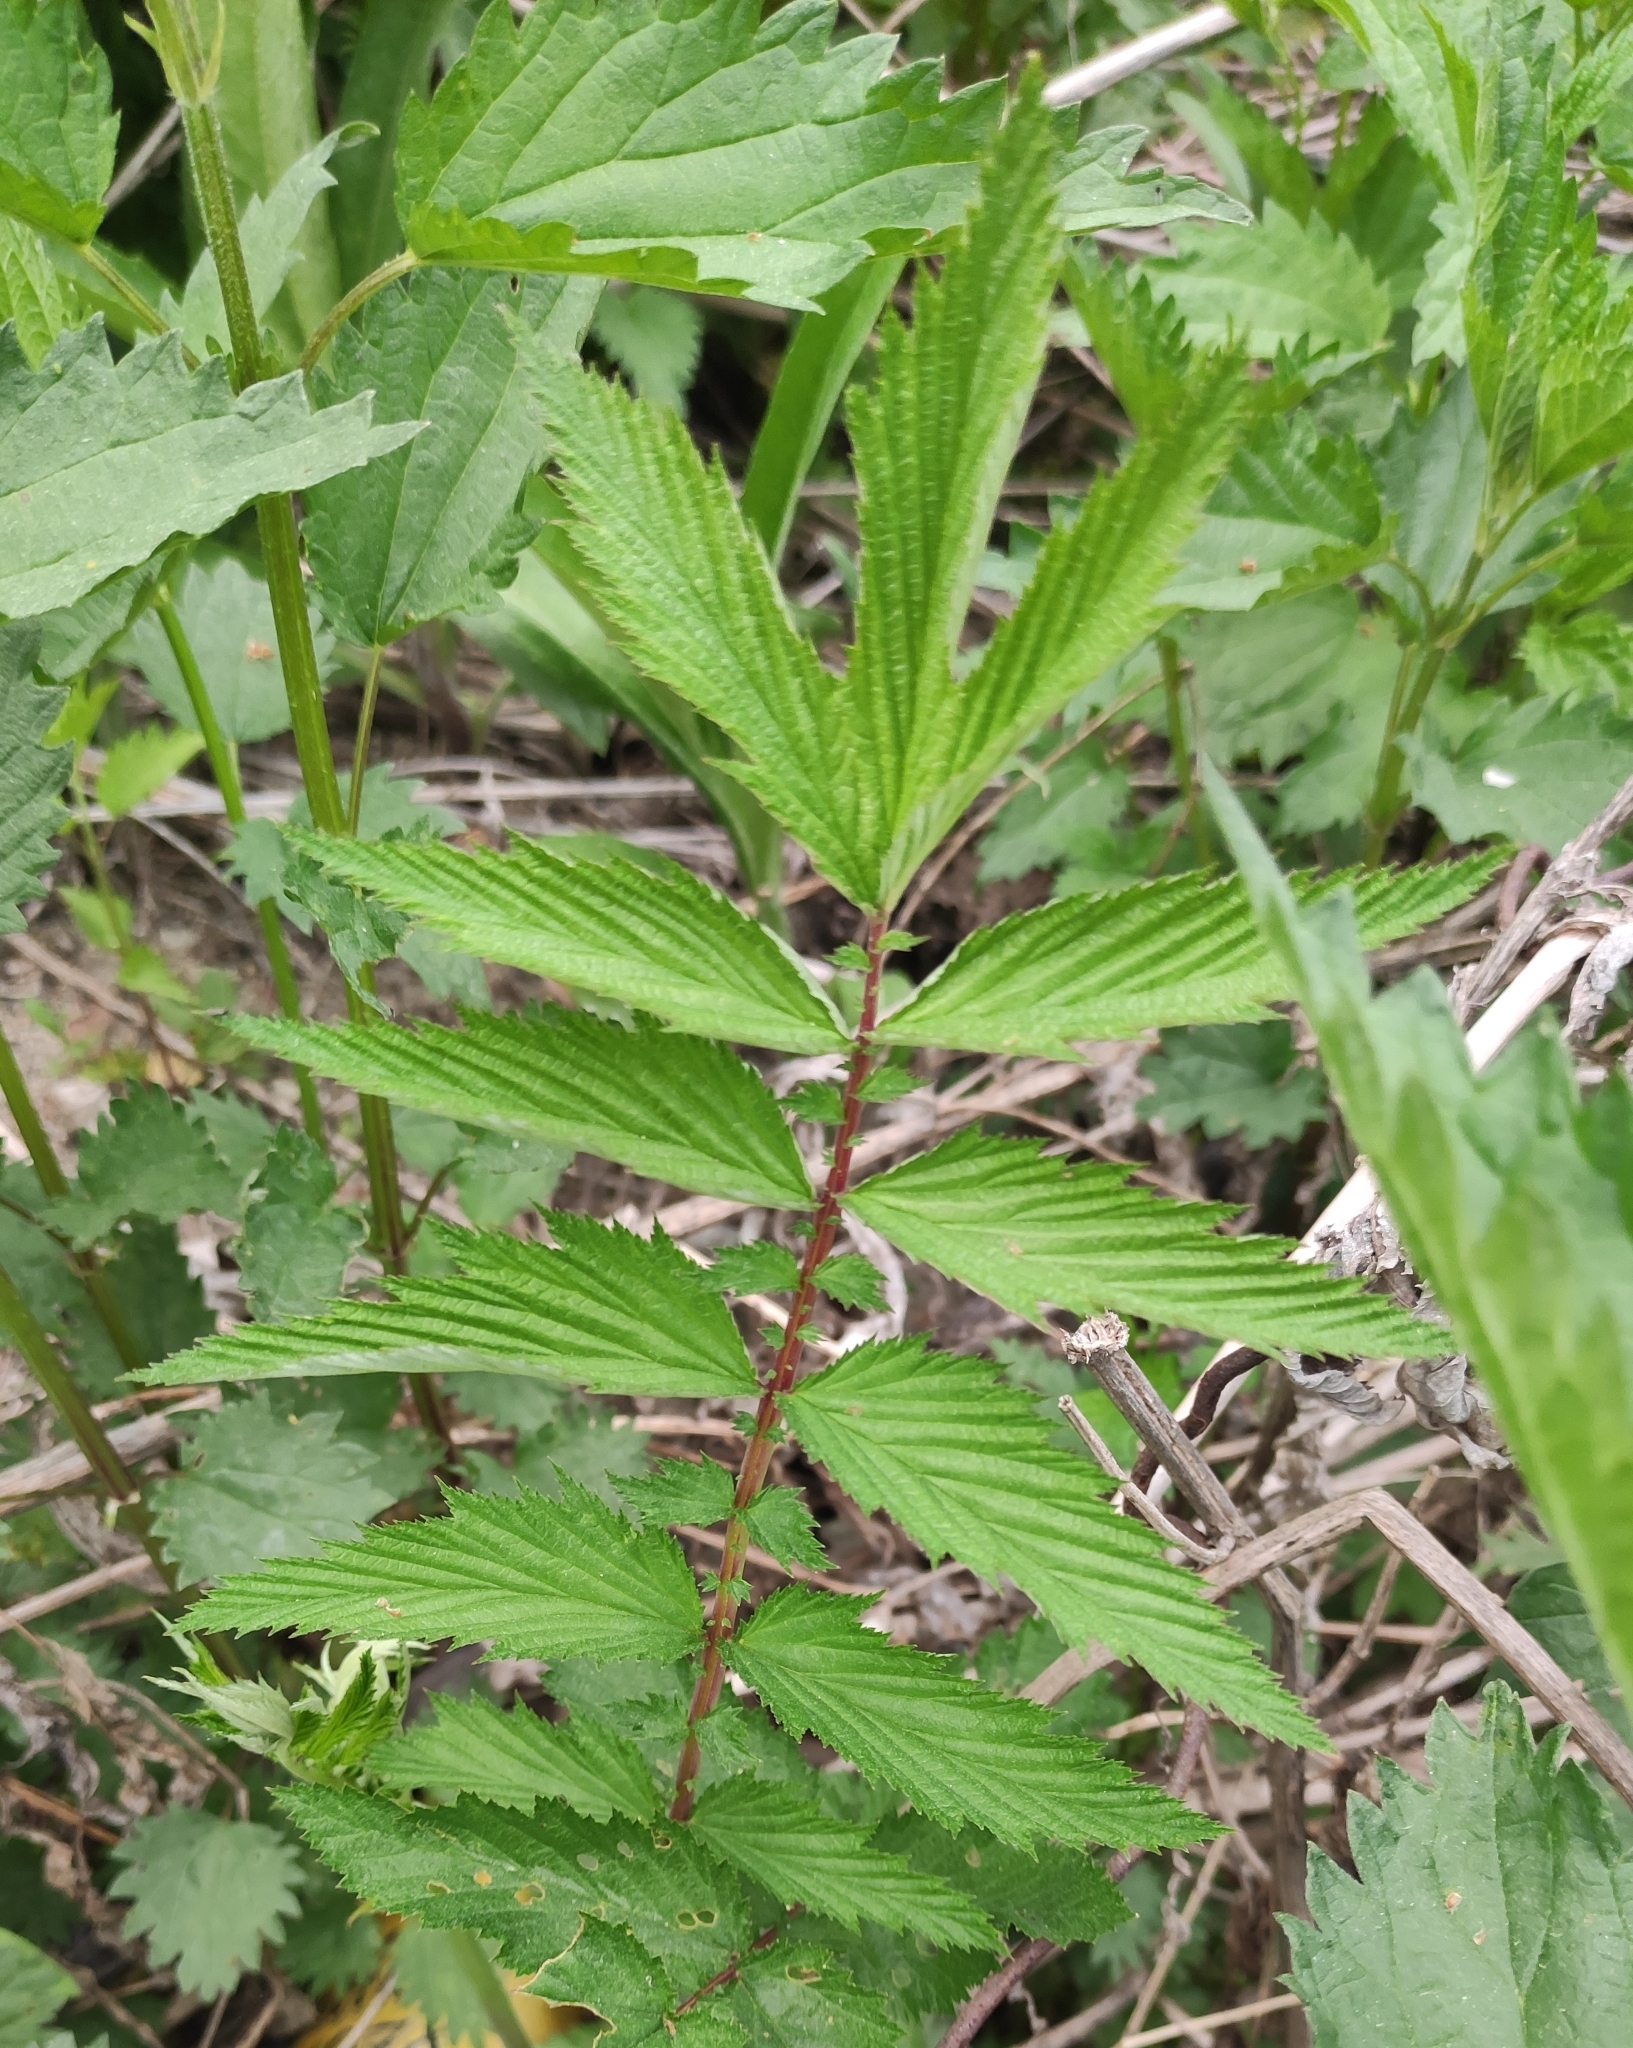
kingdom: Plantae
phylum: Tracheophyta
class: Magnoliopsida
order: Rosales
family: Rosaceae
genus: Filipendula
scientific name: Filipendula ulmaria
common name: Meadowsweet
